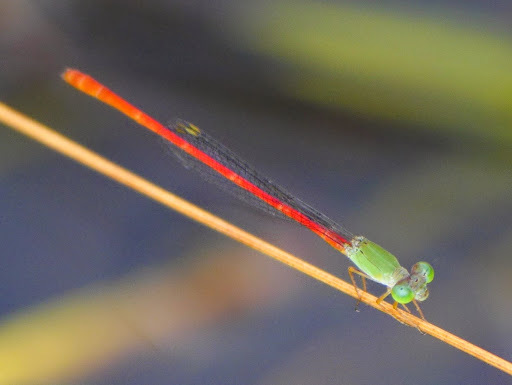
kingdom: Animalia
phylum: Arthropoda
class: Insecta
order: Odonata
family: Coenagrionidae
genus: Ceriagrion
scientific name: Ceriagrion corallinum
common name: Green-fronted waxtail
